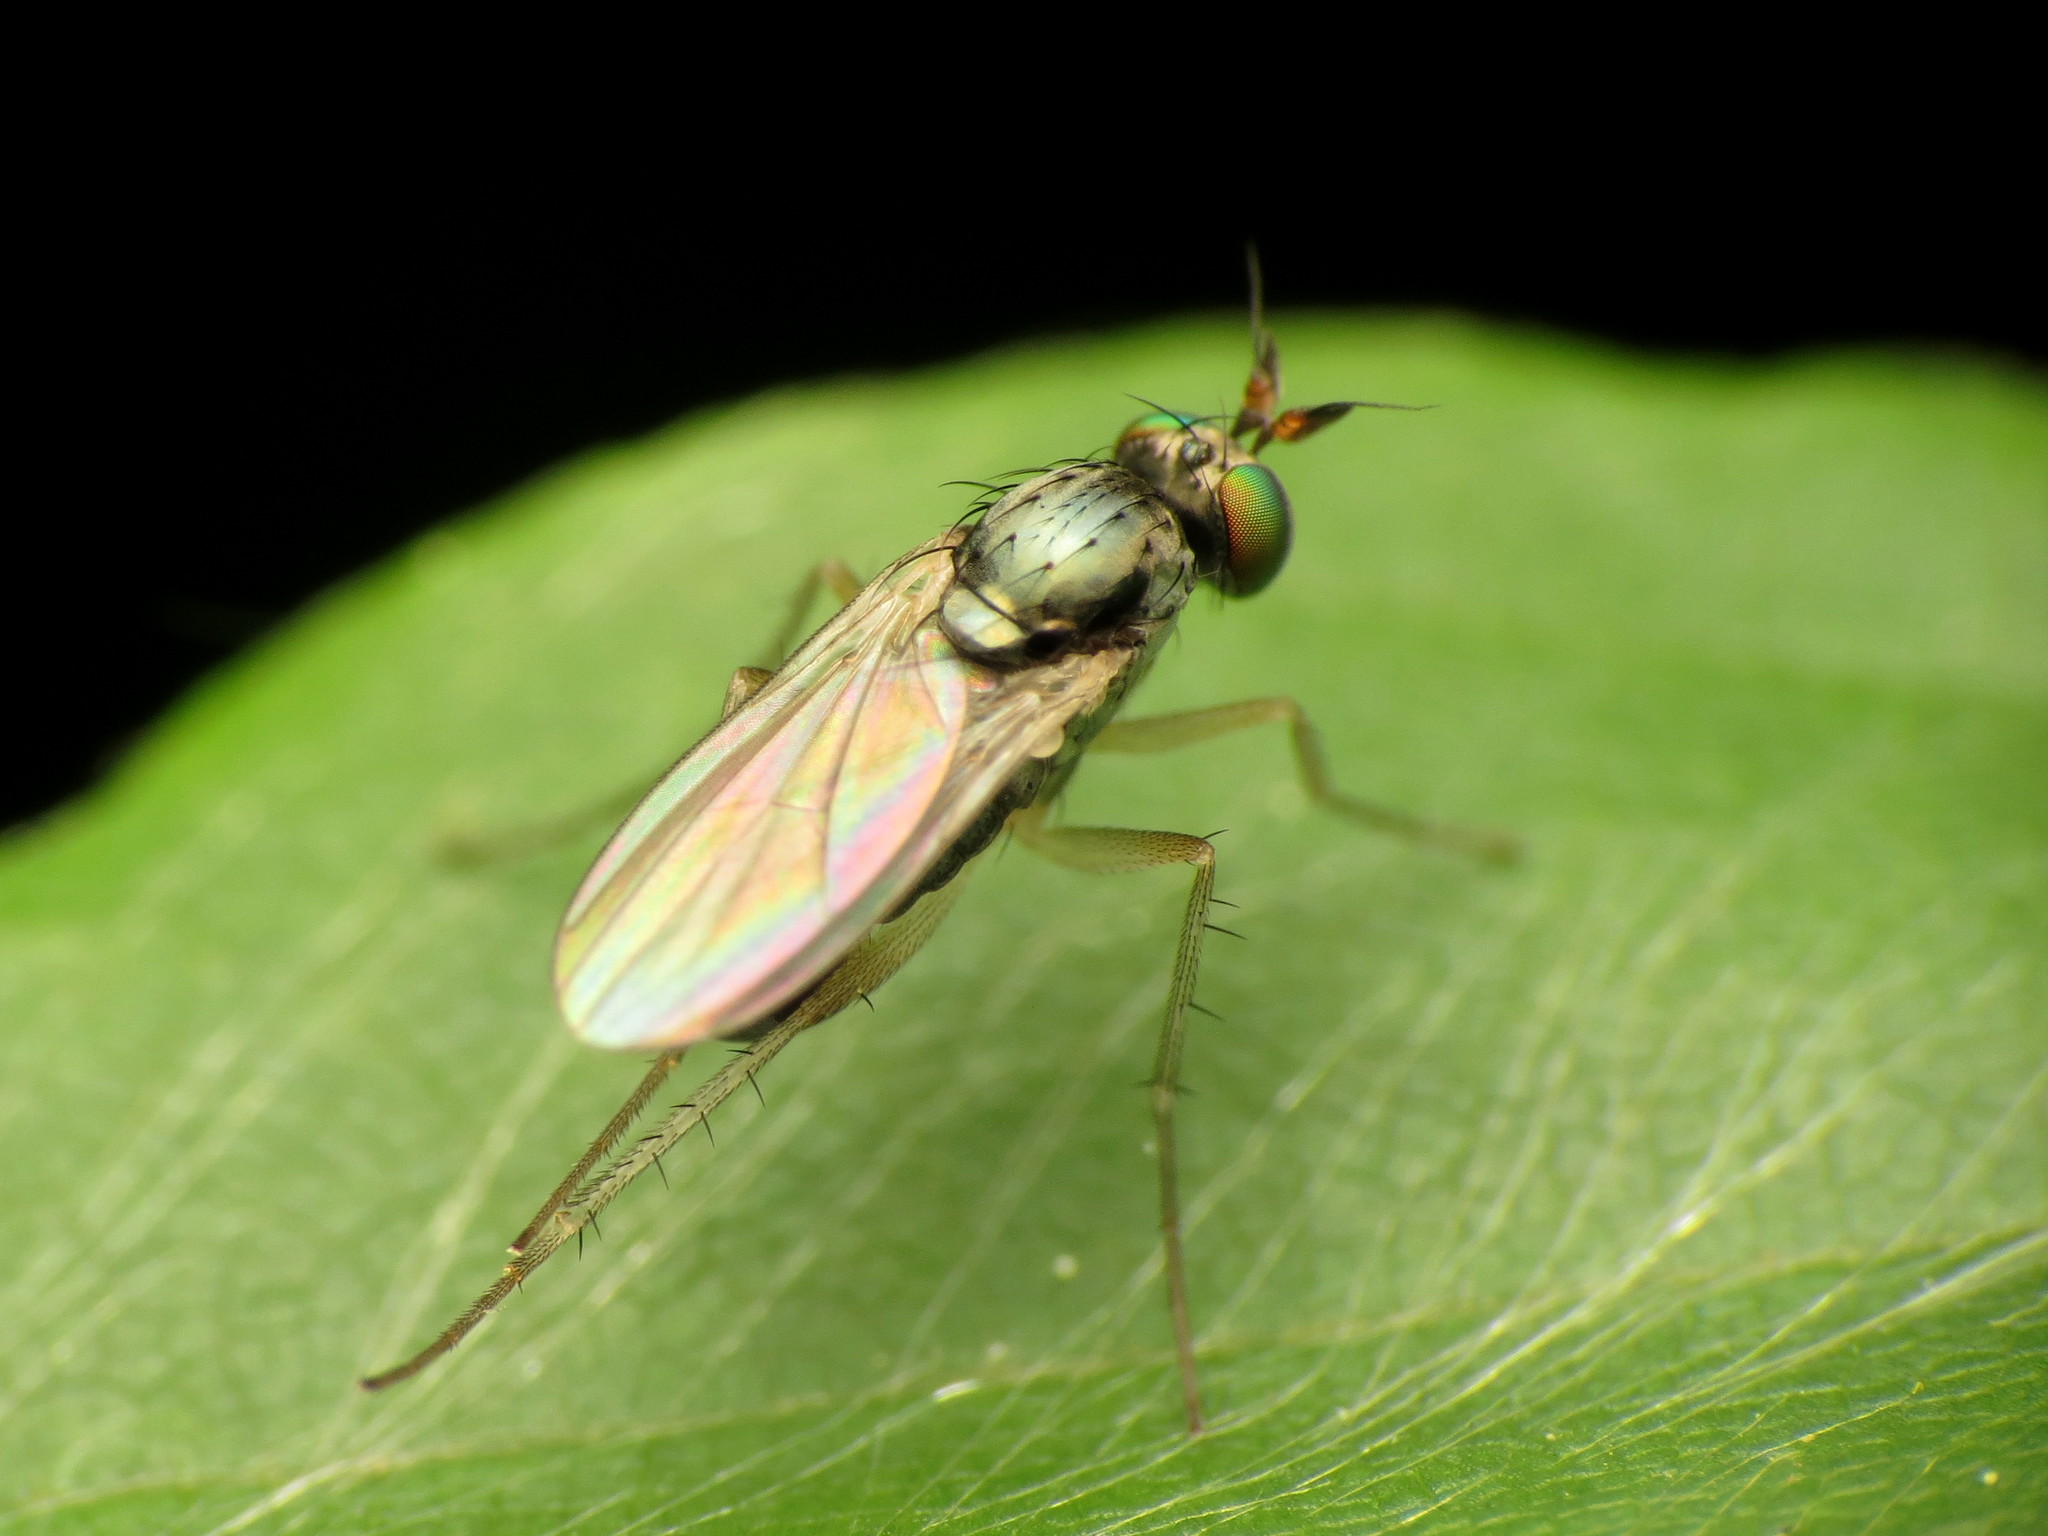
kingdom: Animalia
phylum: Arthropoda
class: Insecta
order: Diptera
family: Dolichopodidae
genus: Gymnopternus
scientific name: Gymnopternus opacus
